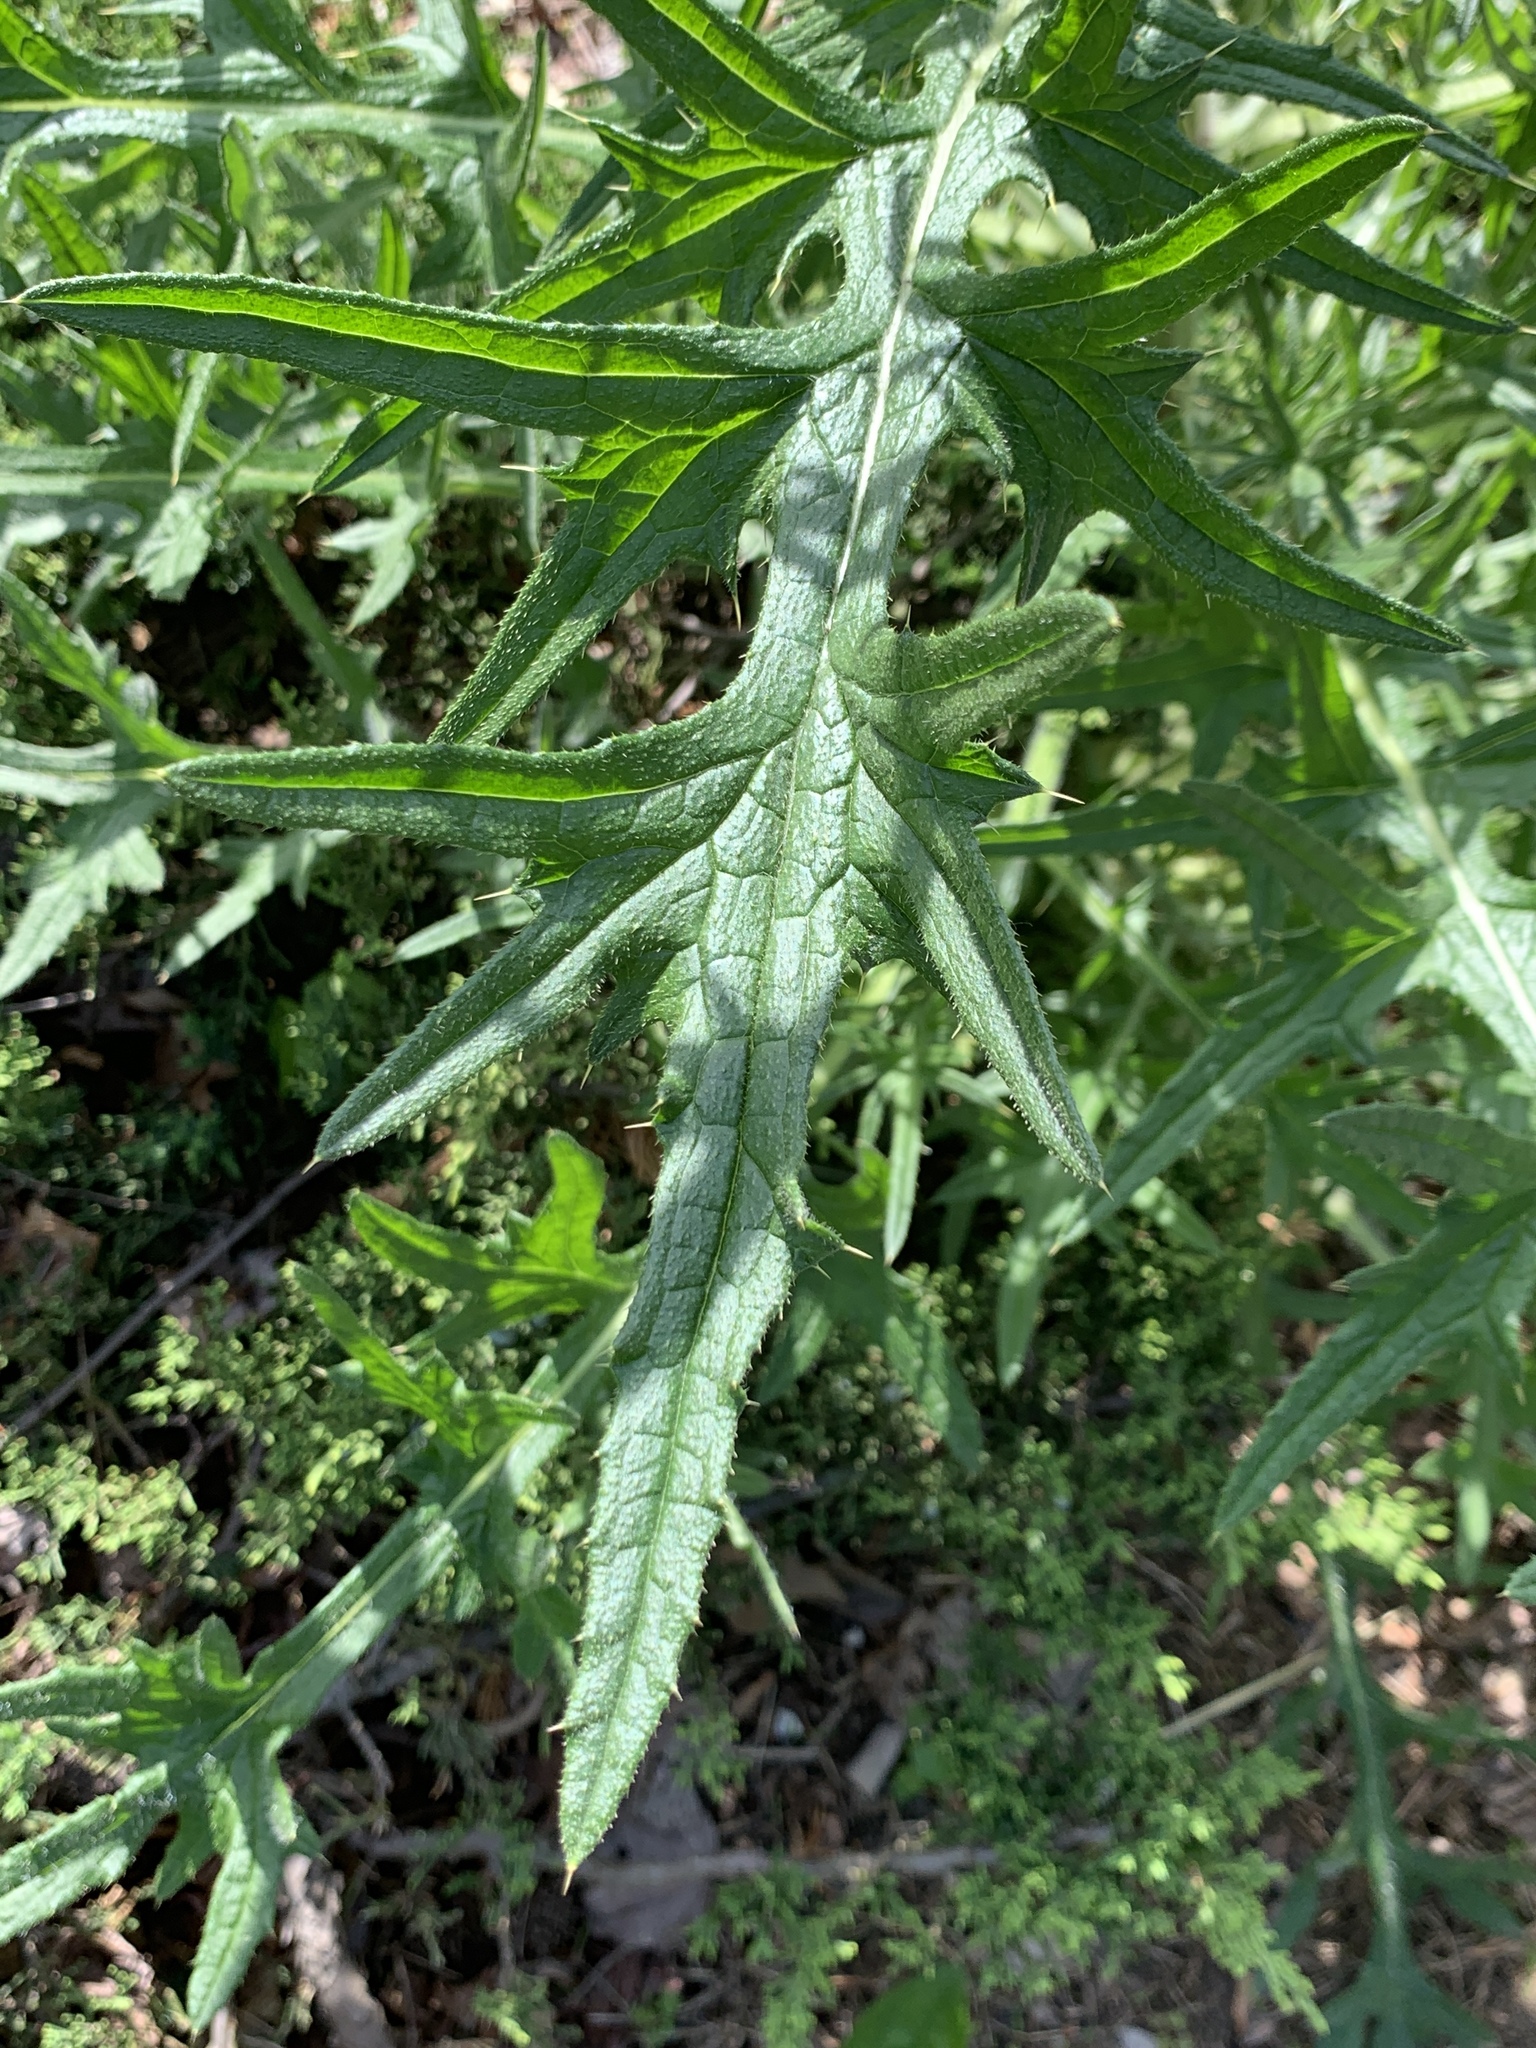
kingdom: Plantae
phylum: Tracheophyta
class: Magnoliopsida
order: Asterales
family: Asteraceae
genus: Cirsium
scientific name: Cirsium vulgare
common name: Bull thistle
